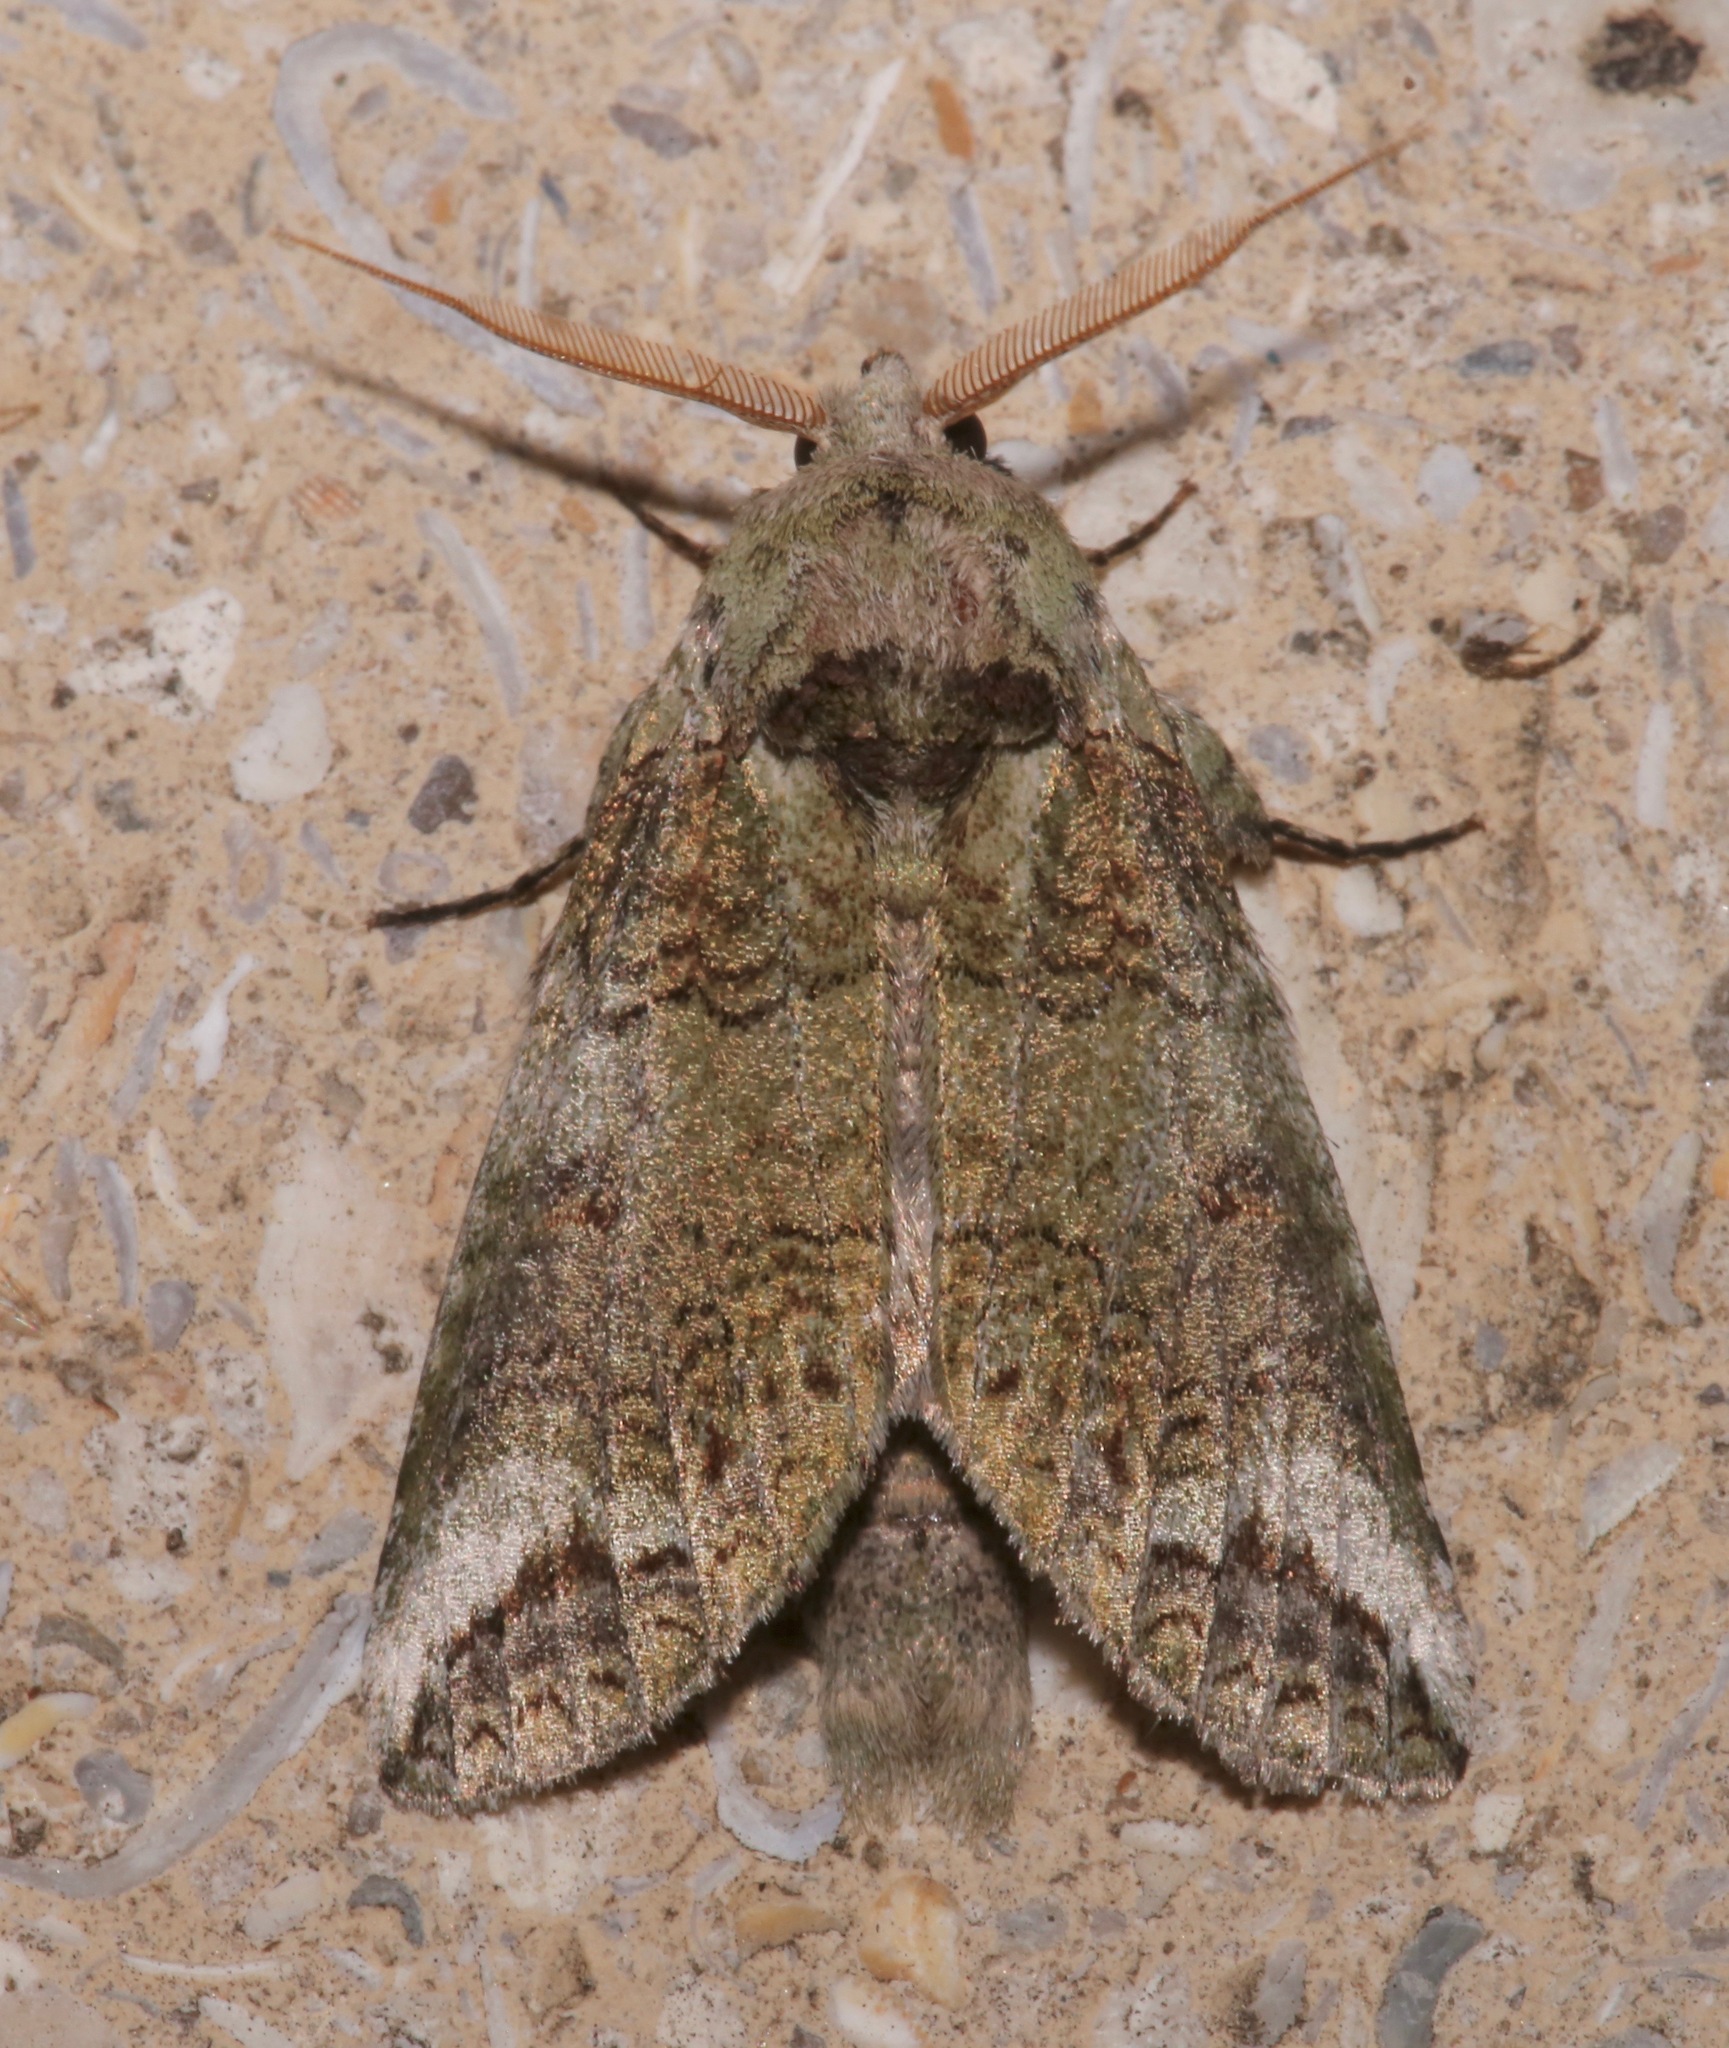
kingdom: Animalia
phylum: Arthropoda
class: Insecta
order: Lepidoptera
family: Notodontidae
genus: Heterocampa
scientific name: Heterocampa astarte
